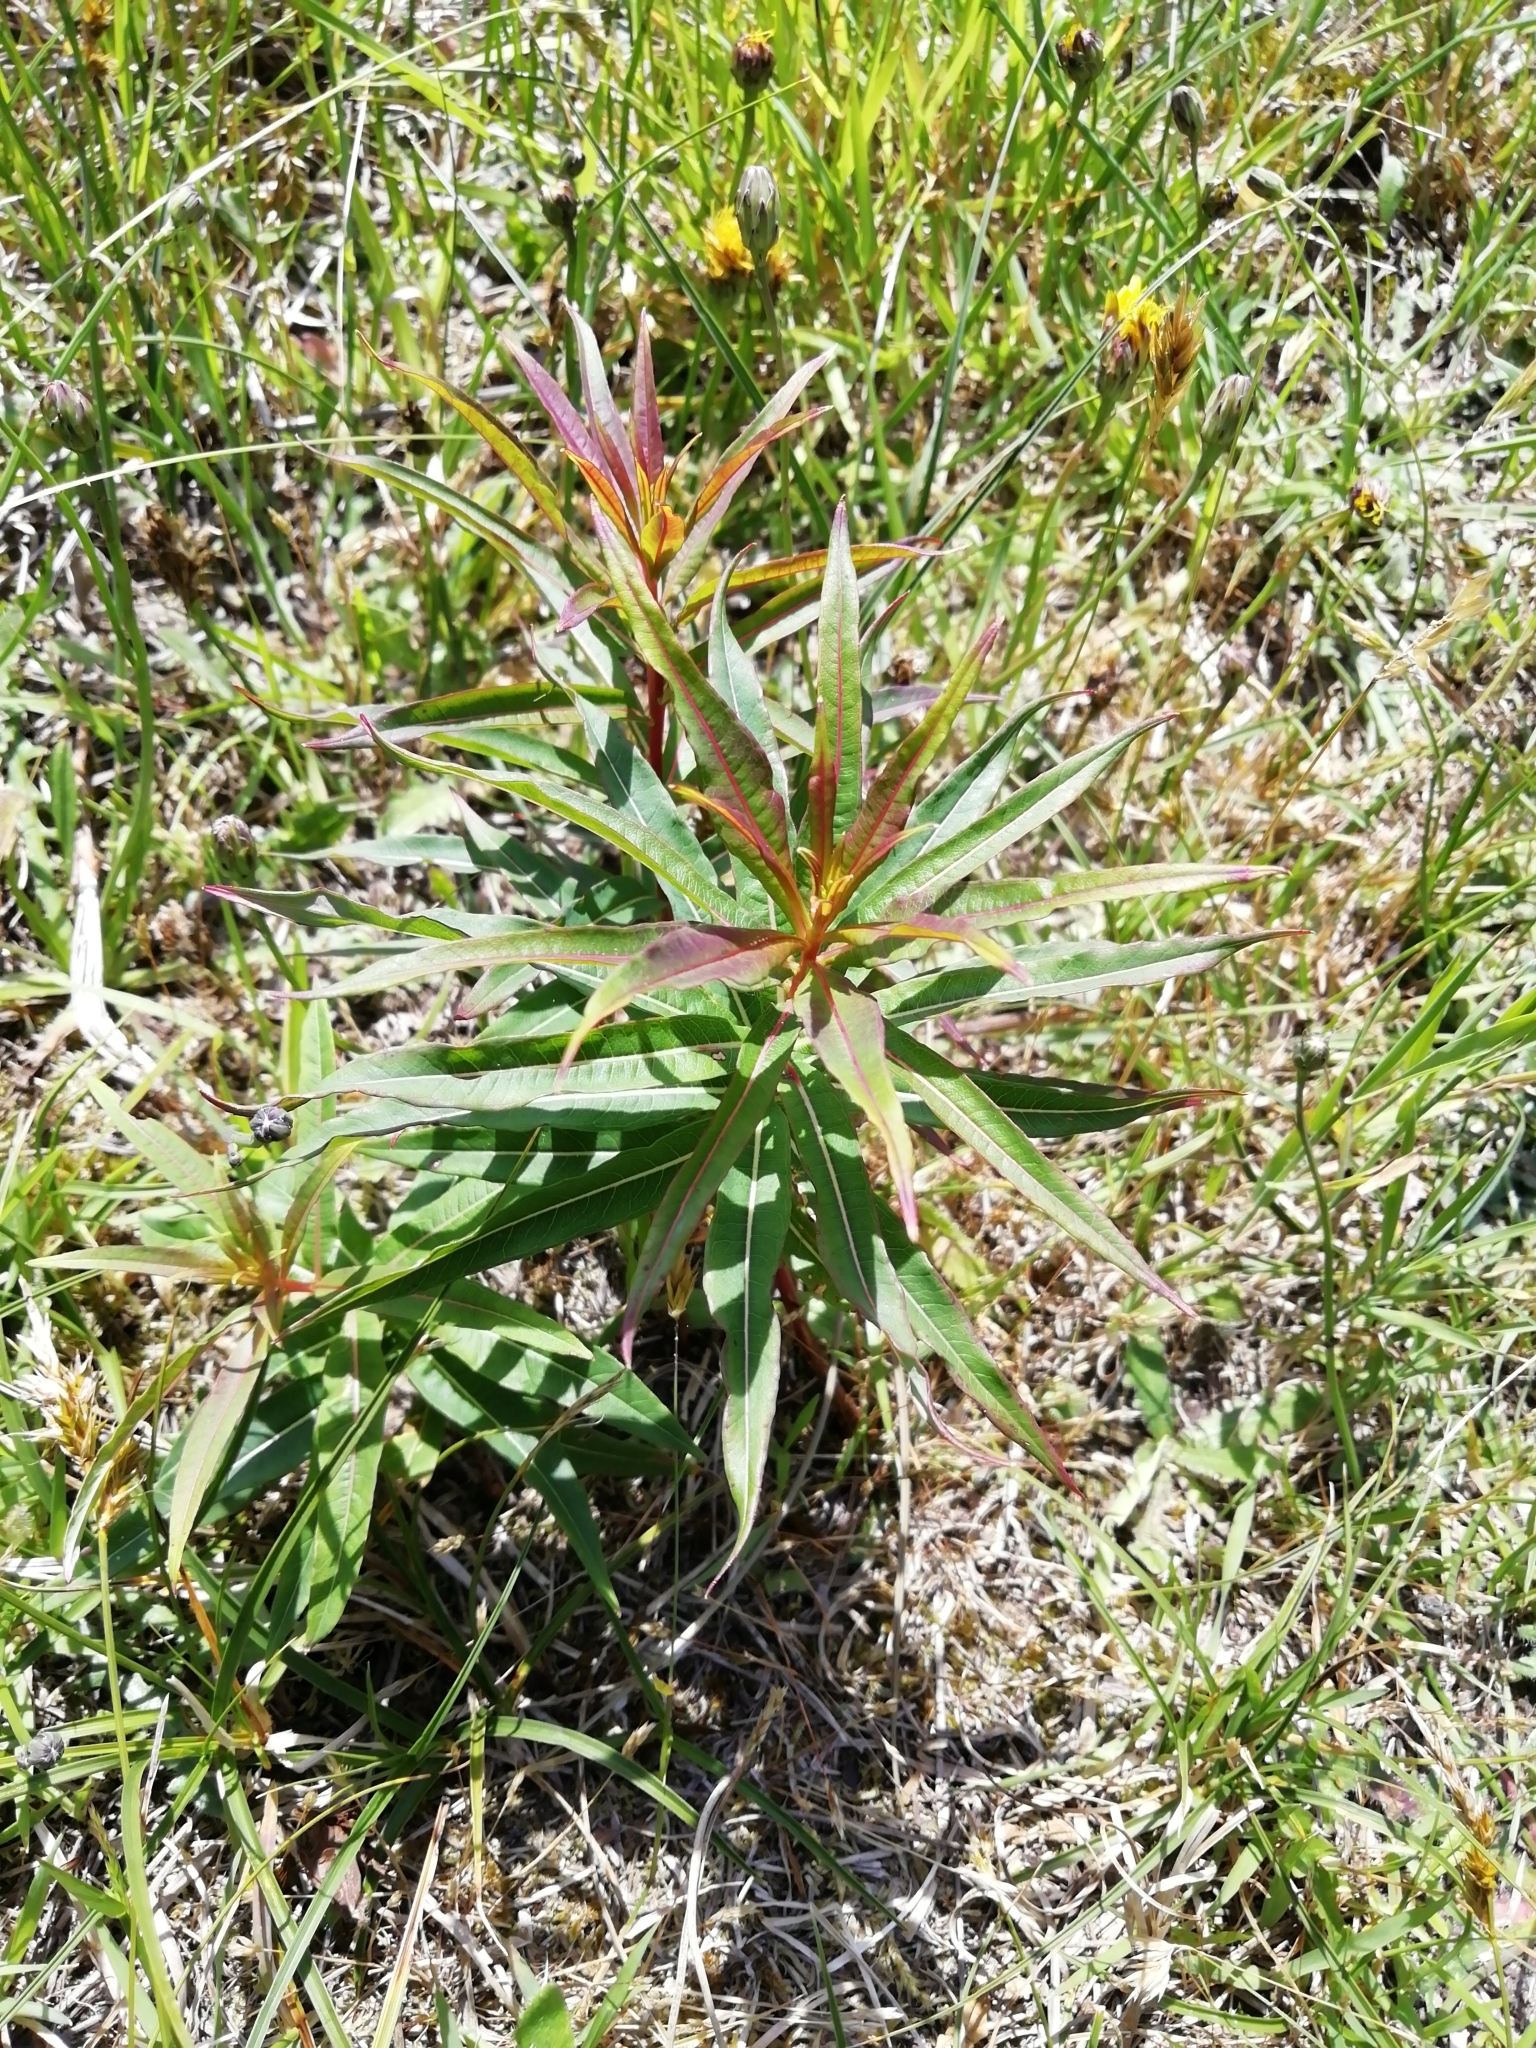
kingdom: Plantae
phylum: Tracheophyta
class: Magnoliopsida
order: Myrtales
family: Onagraceae
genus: Chamaenerion
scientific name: Chamaenerion angustifolium
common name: Fireweed
